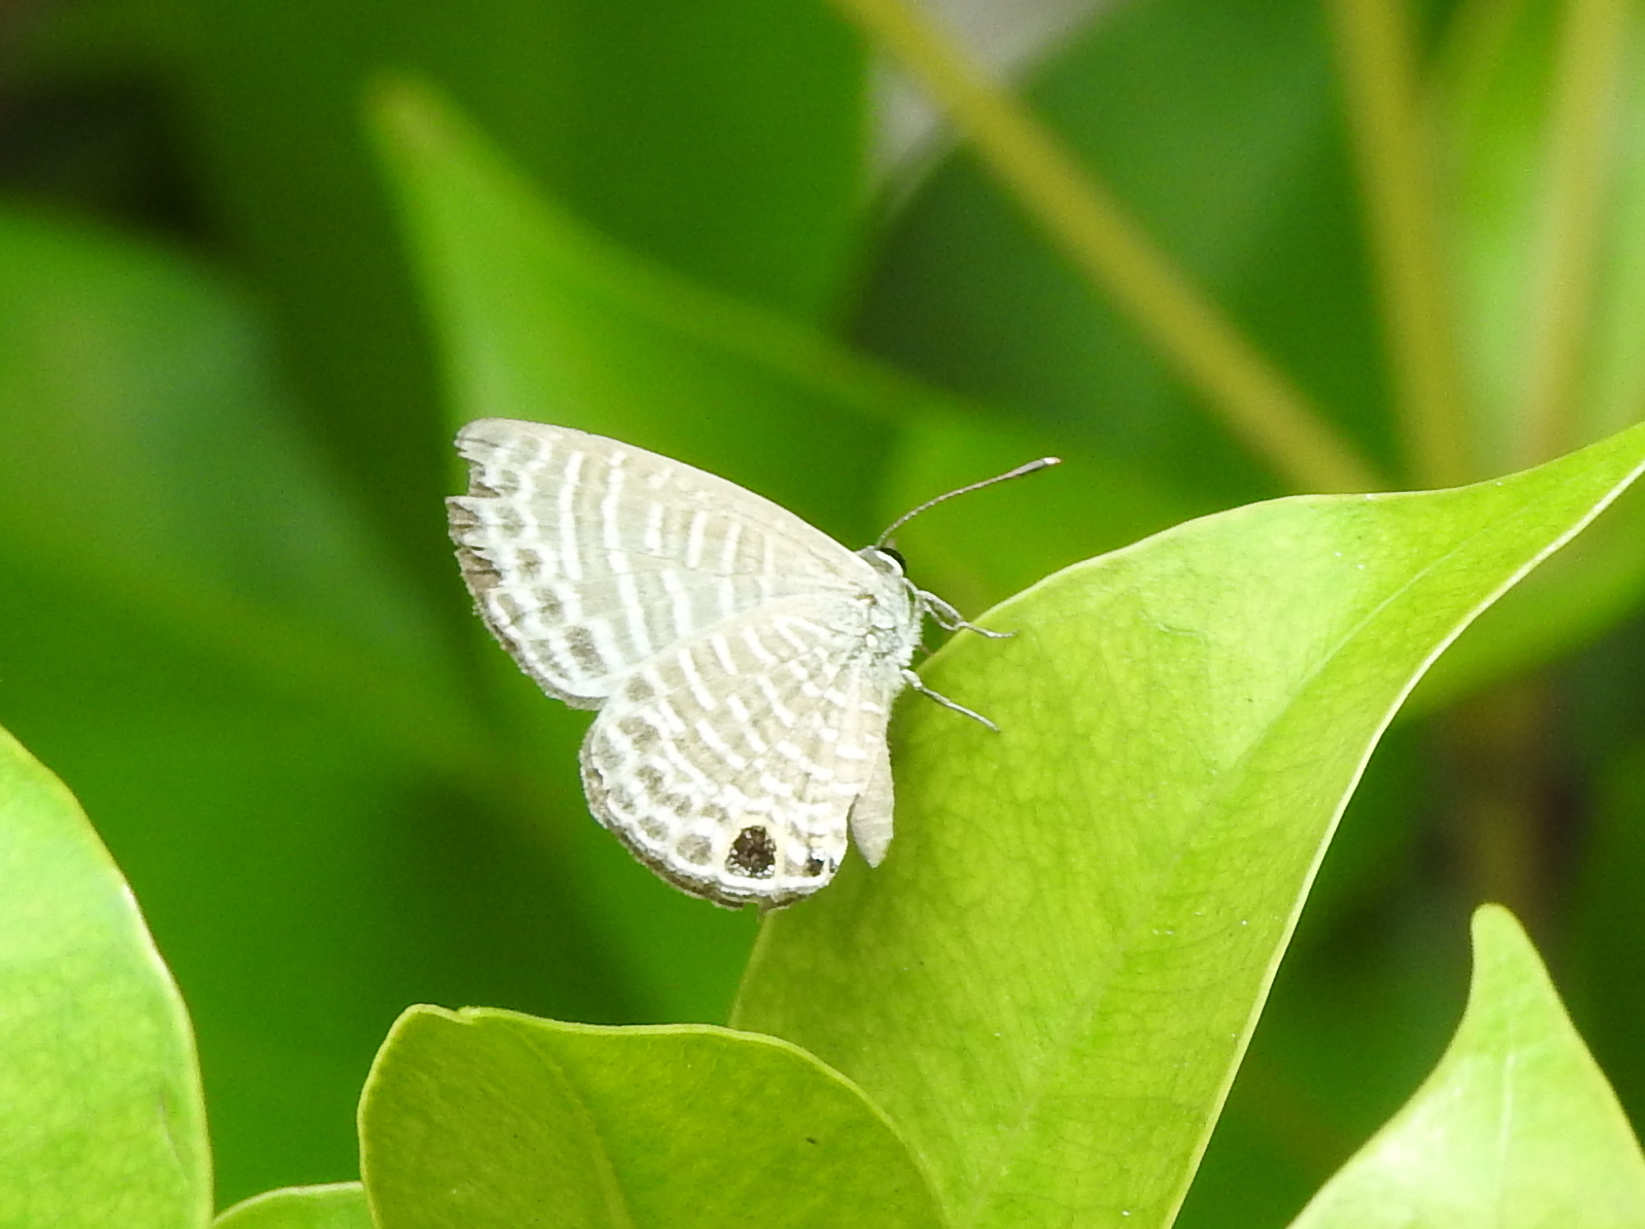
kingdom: Animalia
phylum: Arthropoda
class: Insecta
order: Lepidoptera
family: Lycaenidae
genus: Nacaduba
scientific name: Nacaduba kurava
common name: Transparent 6-line blue
